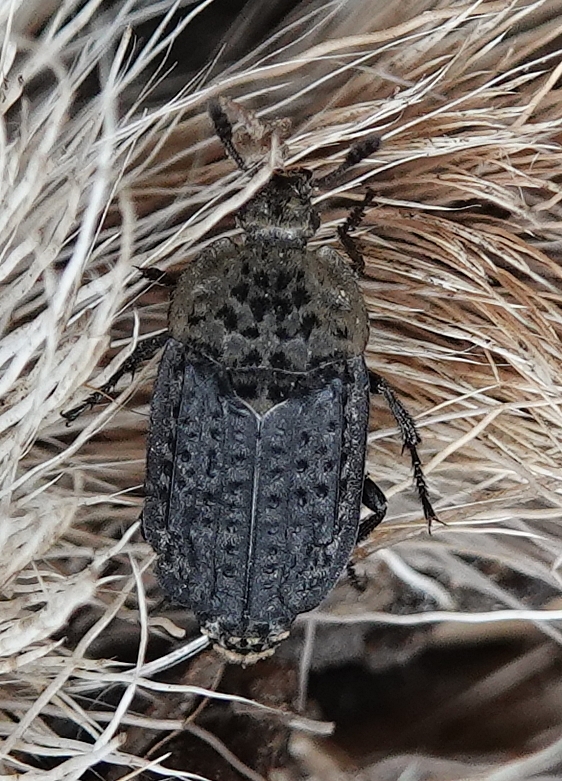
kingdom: Animalia
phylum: Arthropoda
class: Insecta
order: Coleoptera
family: Staphylinidae
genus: Thanatophilus
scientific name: Thanatophilus lapponicus
